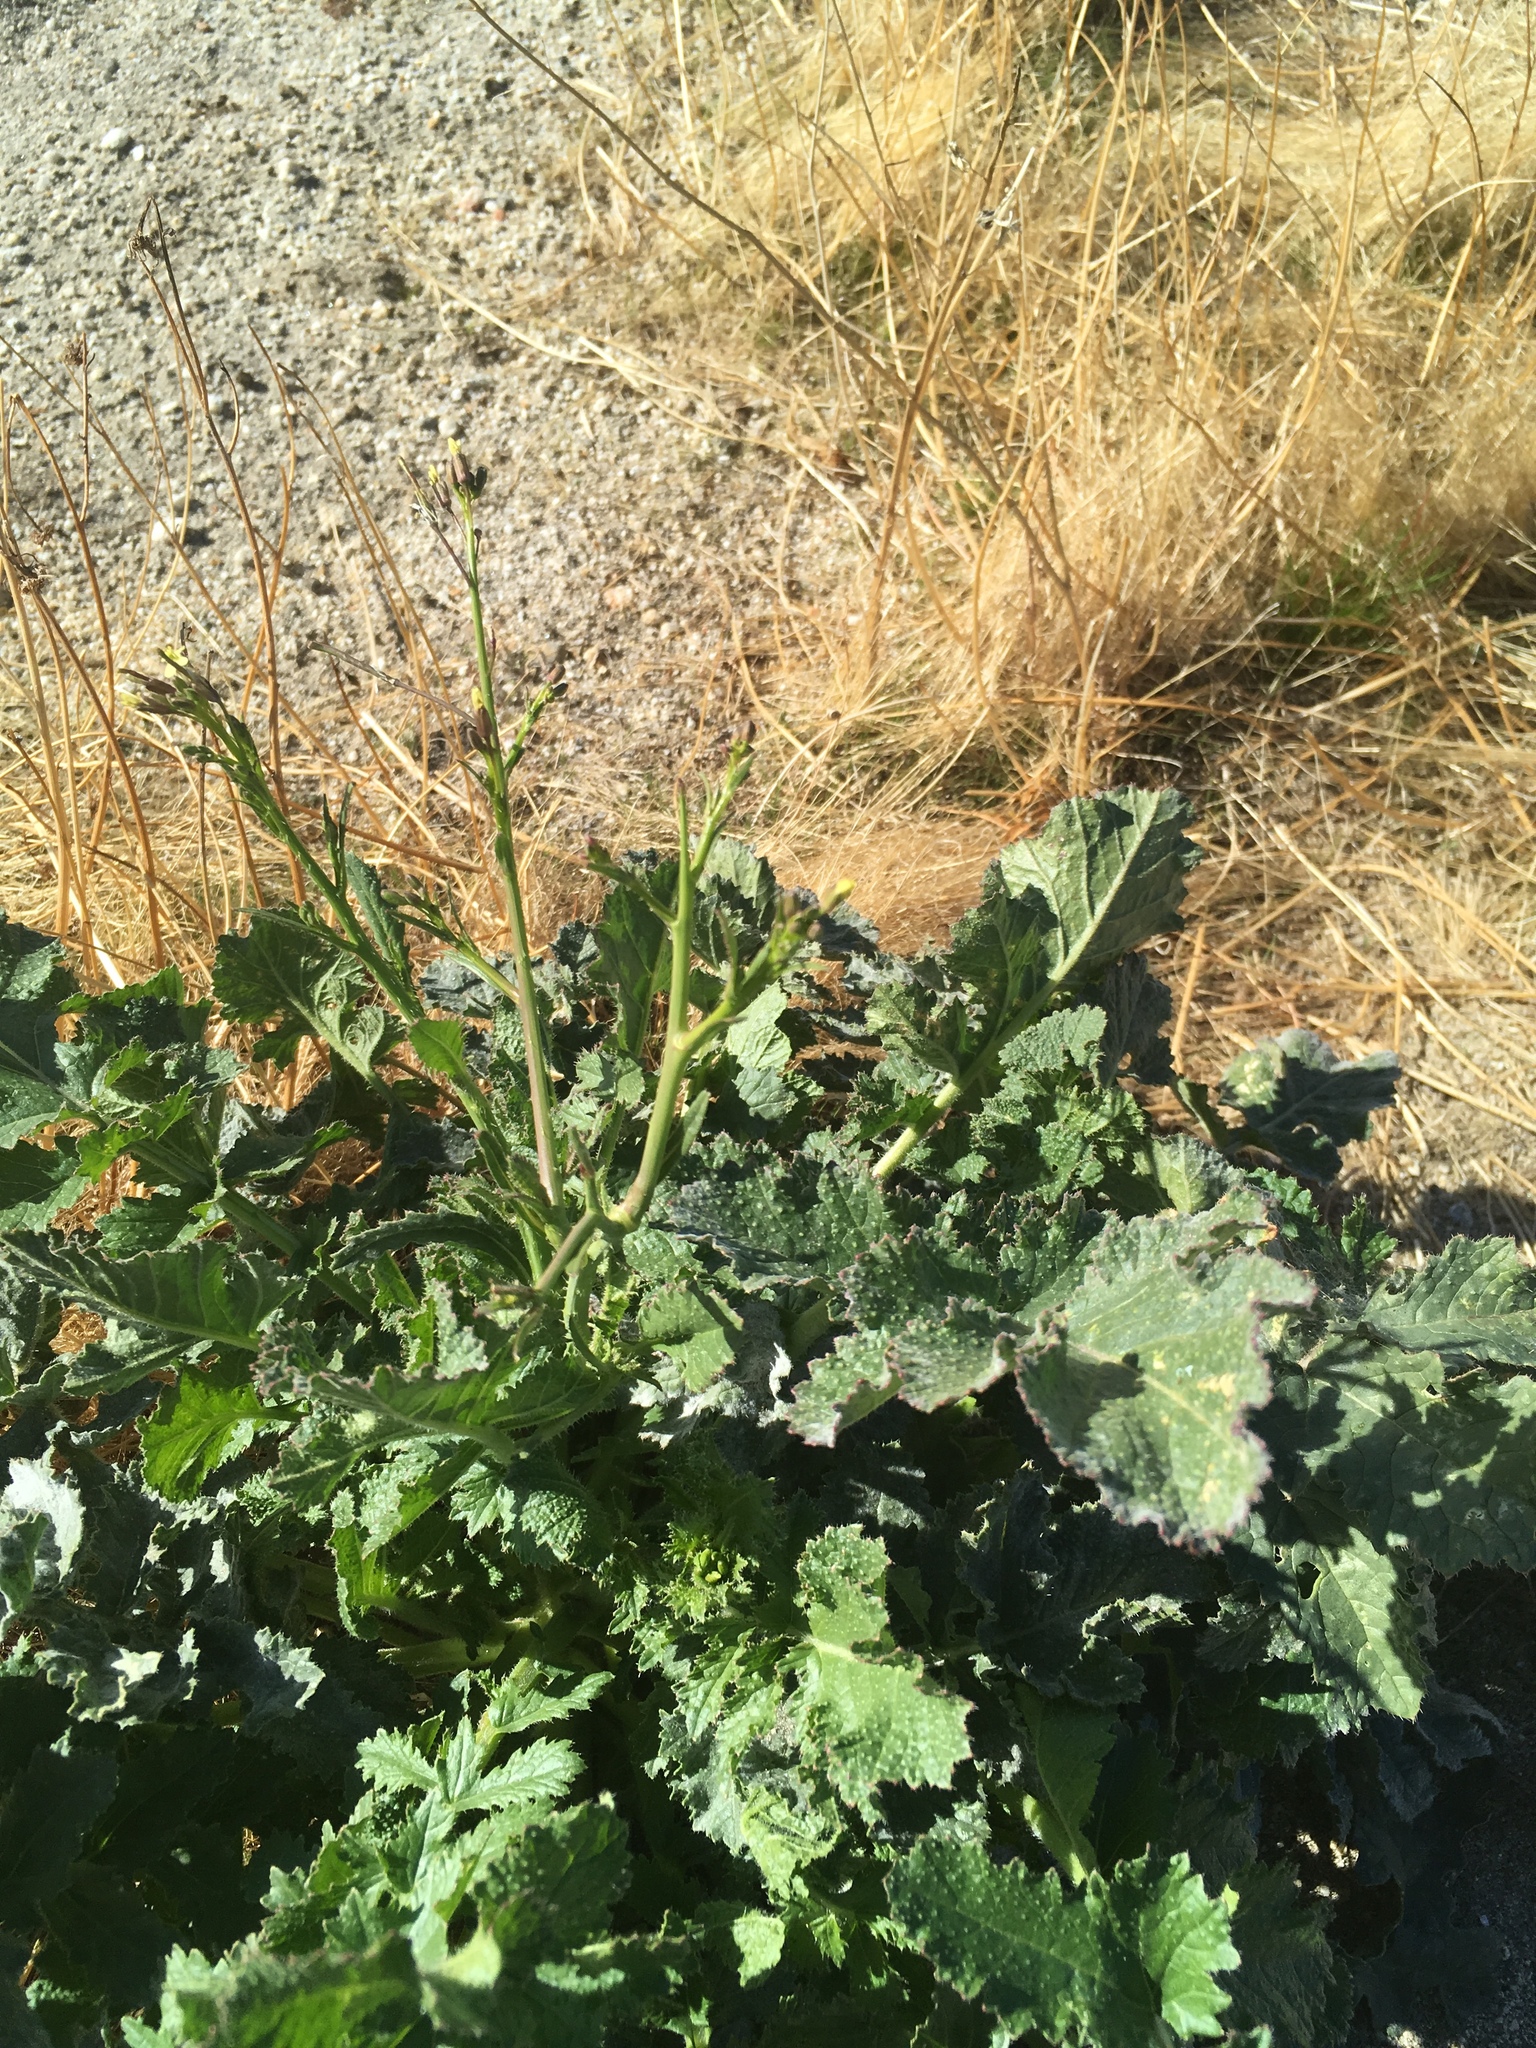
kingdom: Plantae
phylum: Tracheophyta
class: Magnoliopsida
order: Brassicales
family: Brassicaceae
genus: Brassica
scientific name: Brassica tournefortii
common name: Pale cabbage
